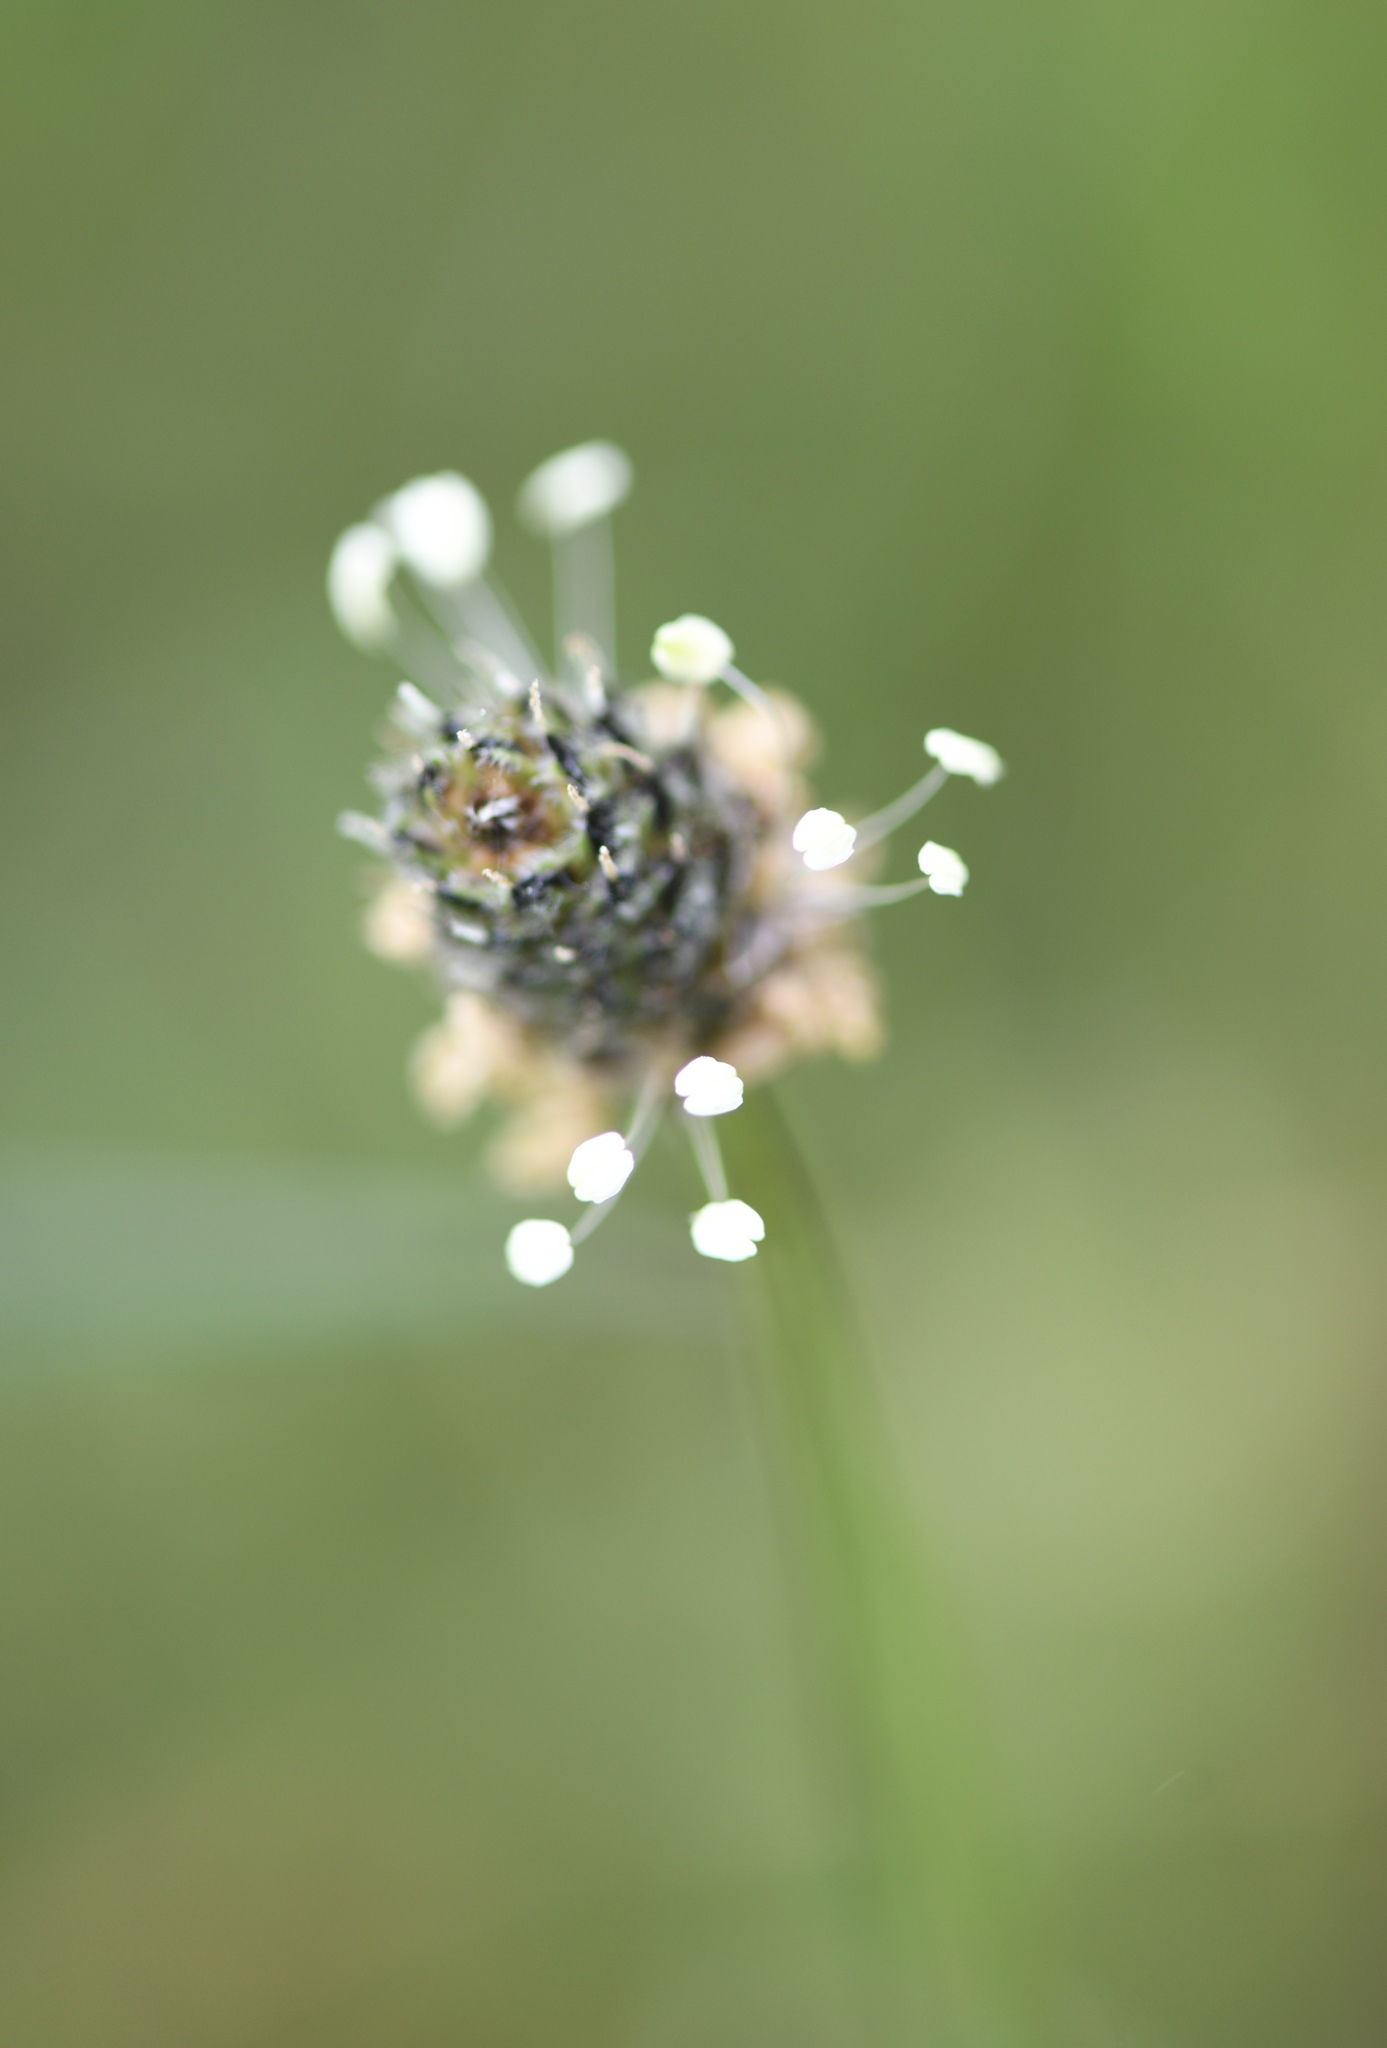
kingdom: Plantae
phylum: Tracheophyta
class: Magnoliopsida
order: Lamiales
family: Plantaginaceae
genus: Plantago
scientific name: Plantago lanceolata
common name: Ribwort plantain
